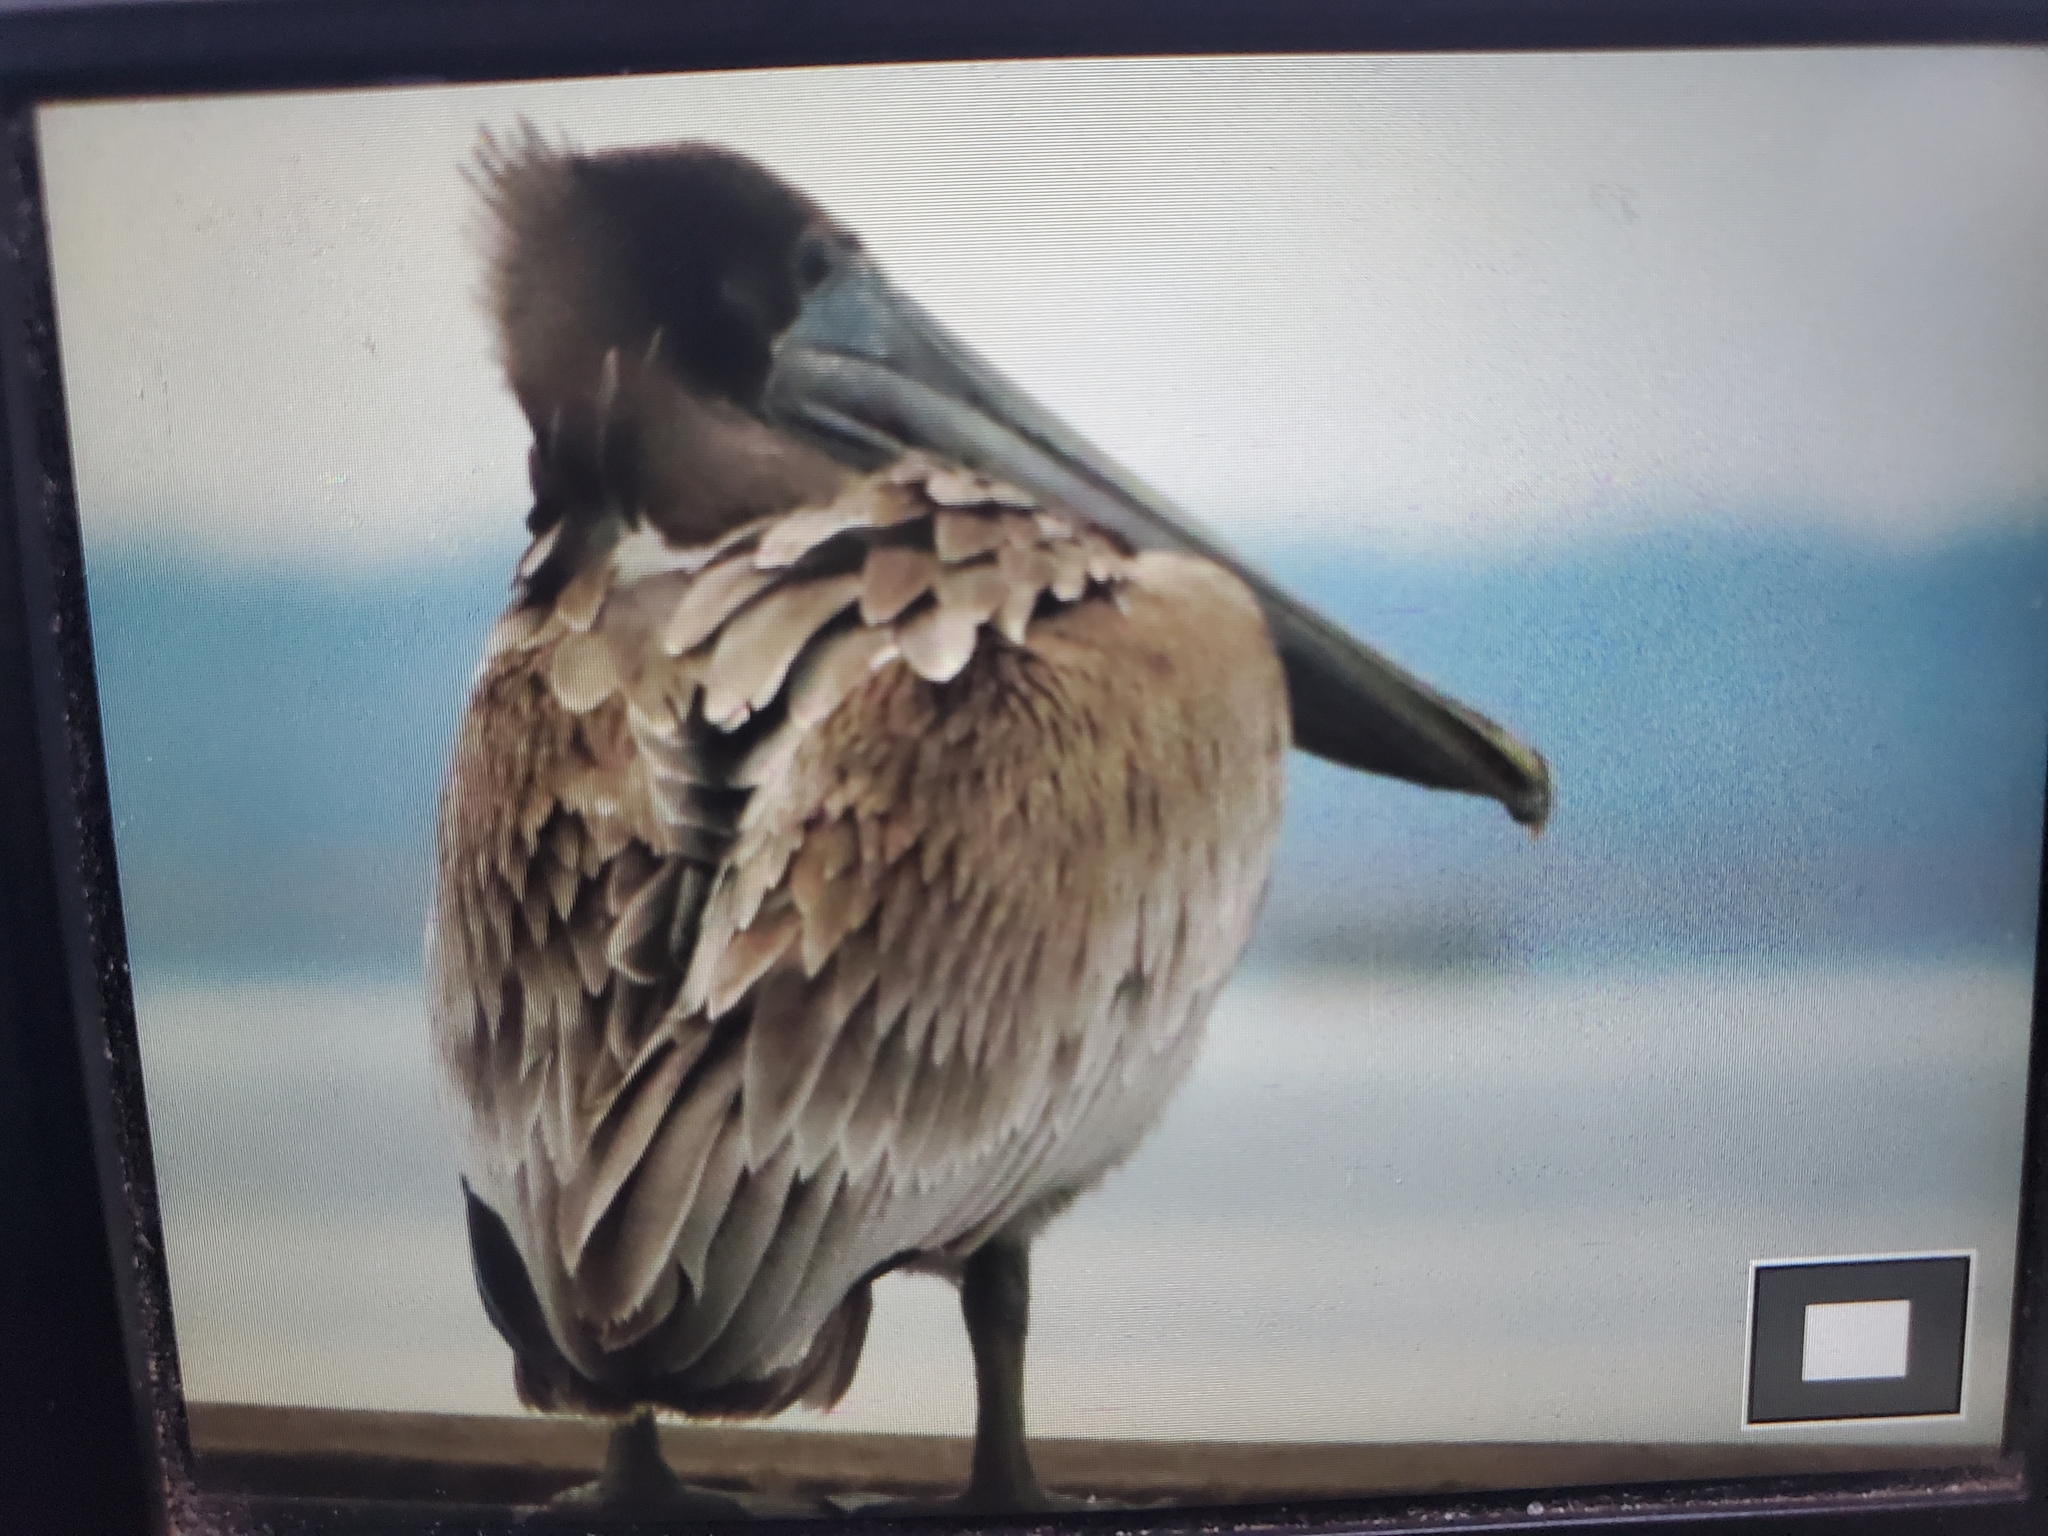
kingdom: Animalia
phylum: Chordata
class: Aves
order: Pelecaniformes
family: Pelecanidae
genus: Pelecanus
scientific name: Pelecanus occidentalis
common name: Brown pelican
